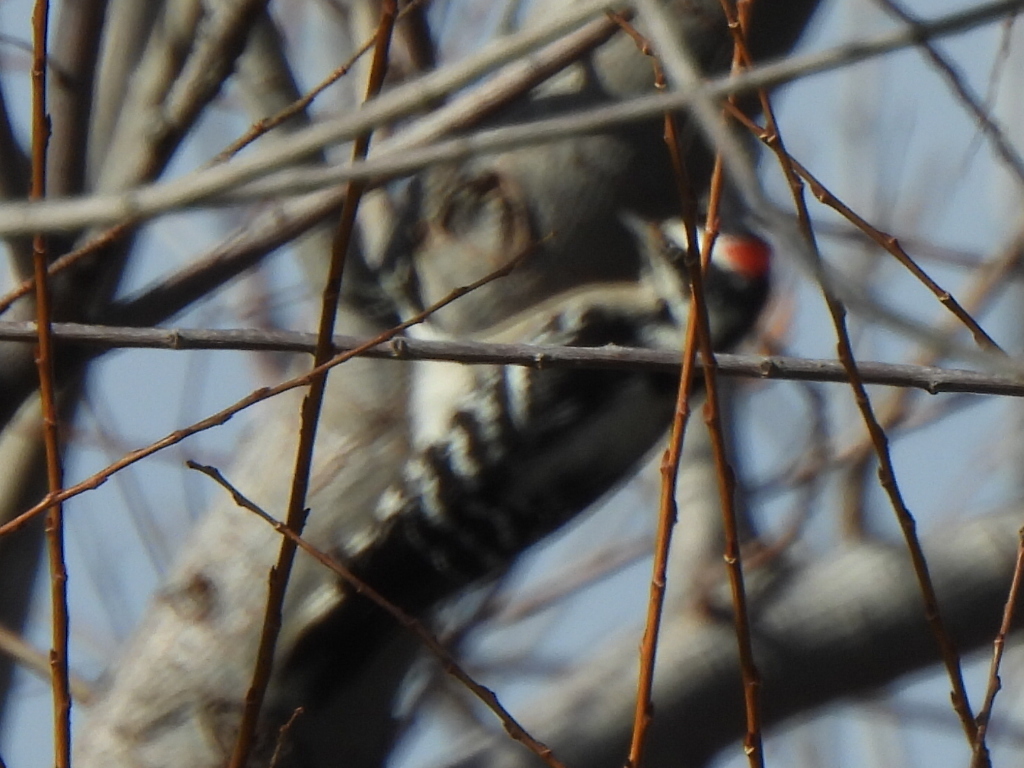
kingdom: Animalia
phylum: Chordata
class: Aves
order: Piciformes
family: Picidae
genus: Dryobates
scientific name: Dryobates pubescens
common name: Downy woodpecker
